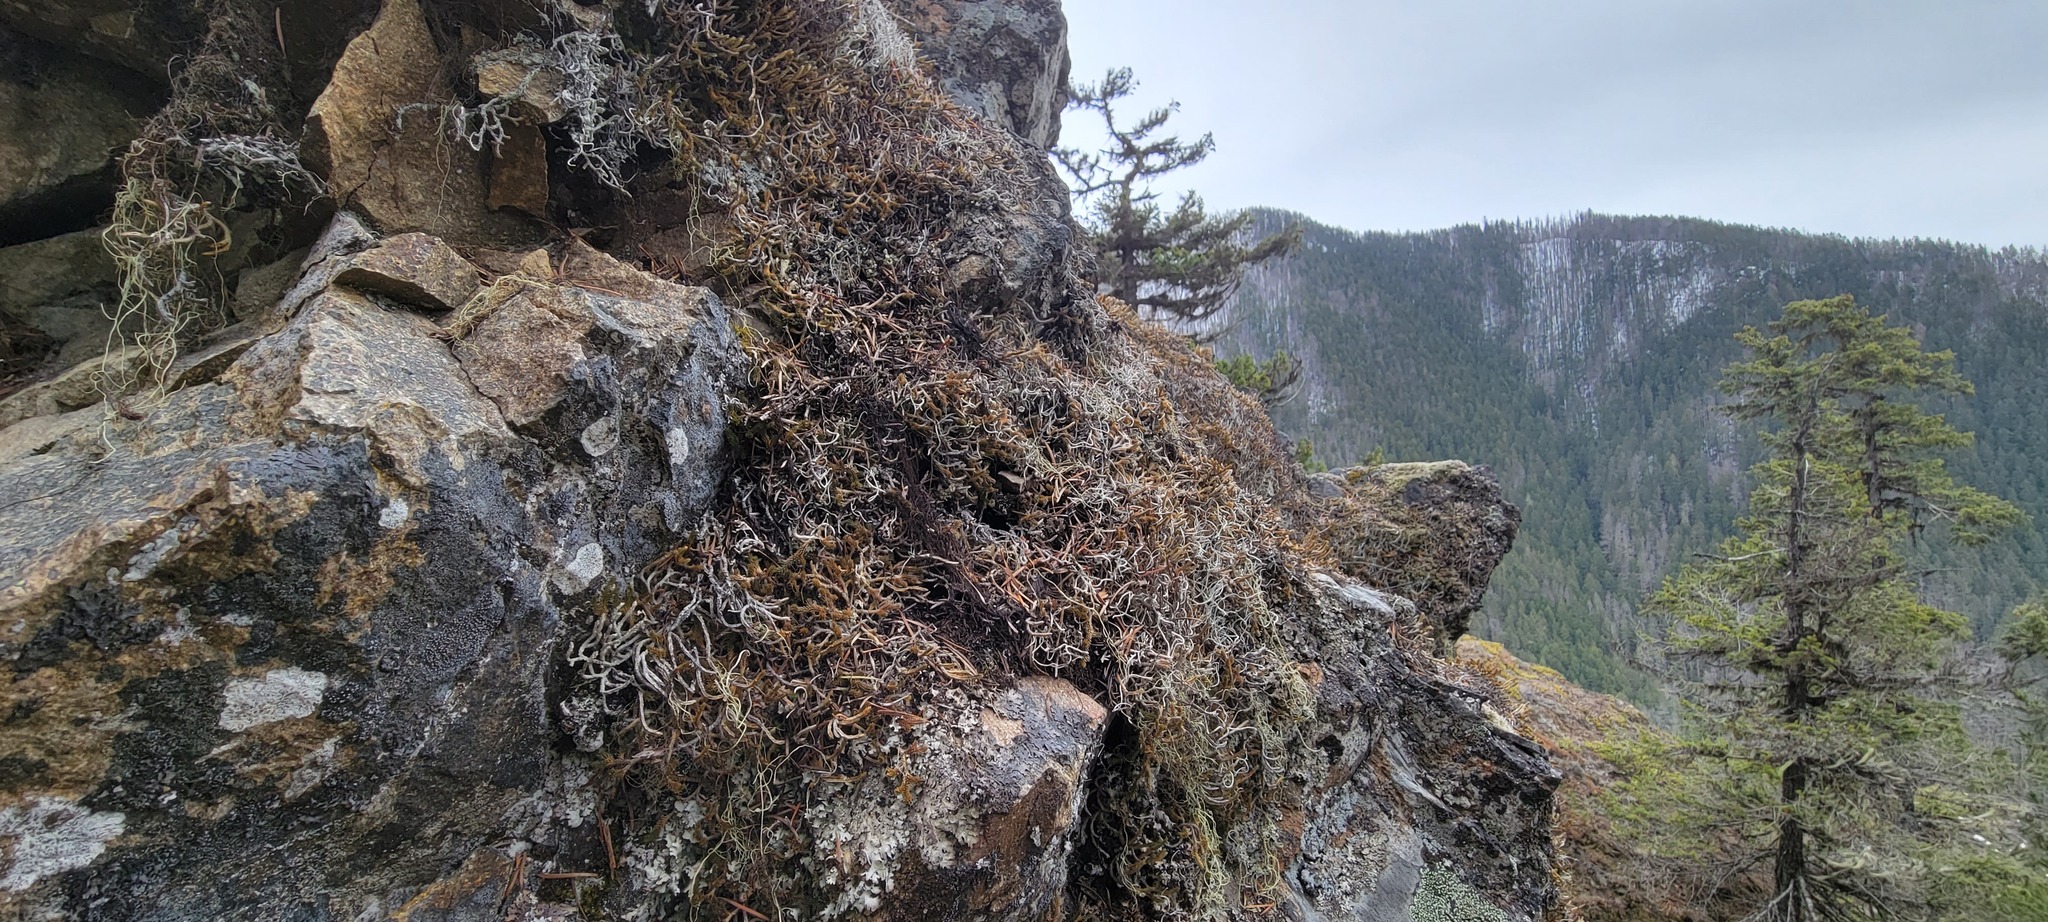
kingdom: Fungi
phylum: Ascomycota
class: Lecanoromycetes
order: Pertusariales
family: Icmadophilaceae
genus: Thamnolia
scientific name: Thamnolia vermicularis
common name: Whiteworm lichen
